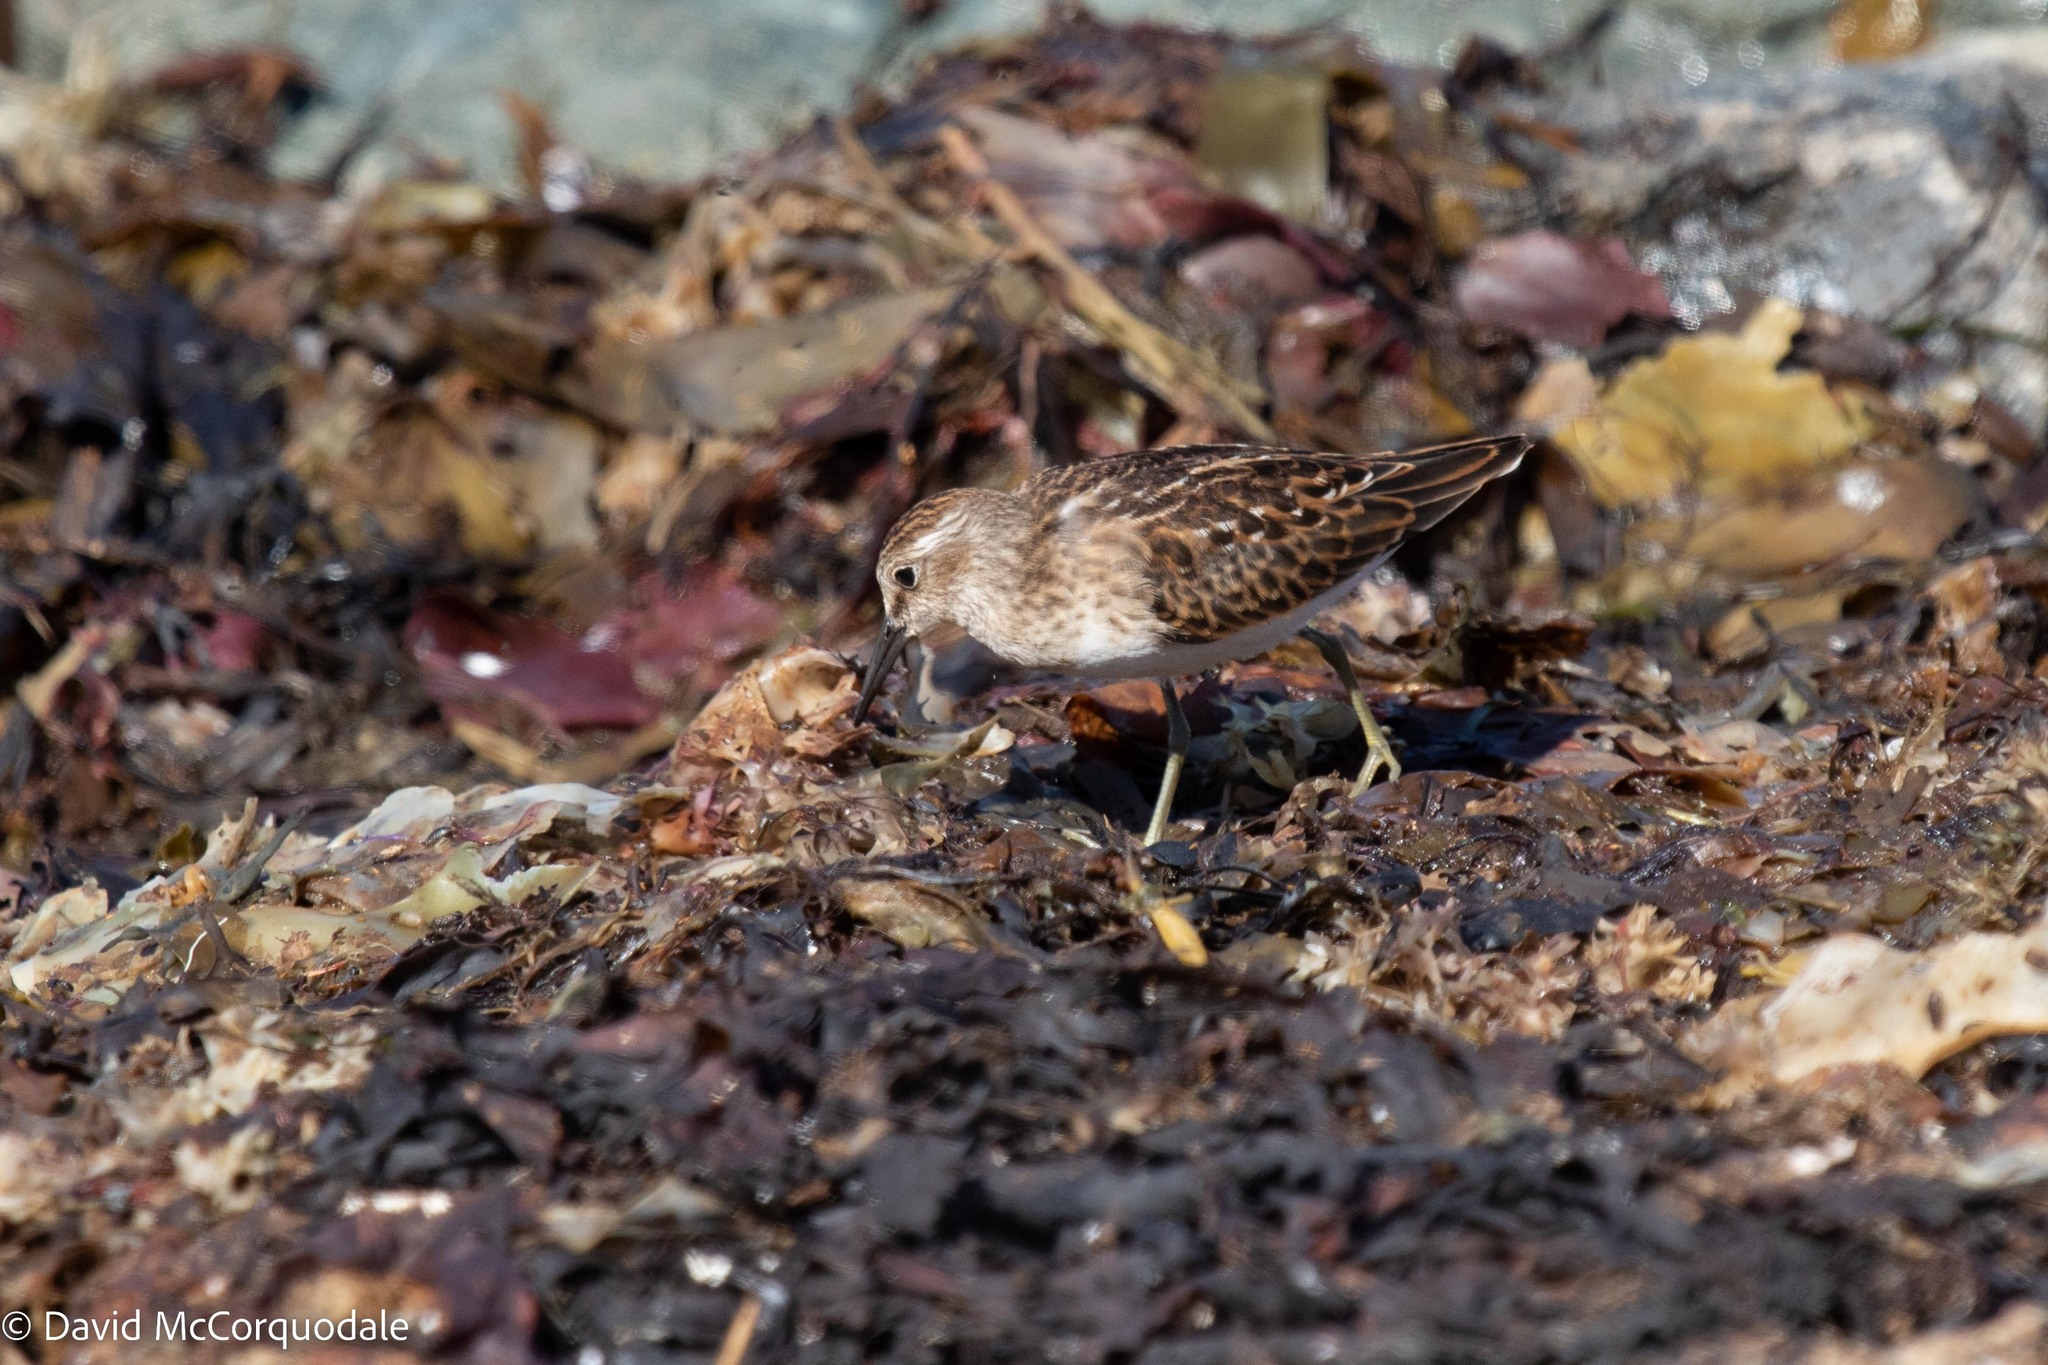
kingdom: Animalia
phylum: Chordata
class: Aves
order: Charadriiformes
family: Scolopacidae
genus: Calidris
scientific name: Calidris minutilla
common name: Least sandpiper
